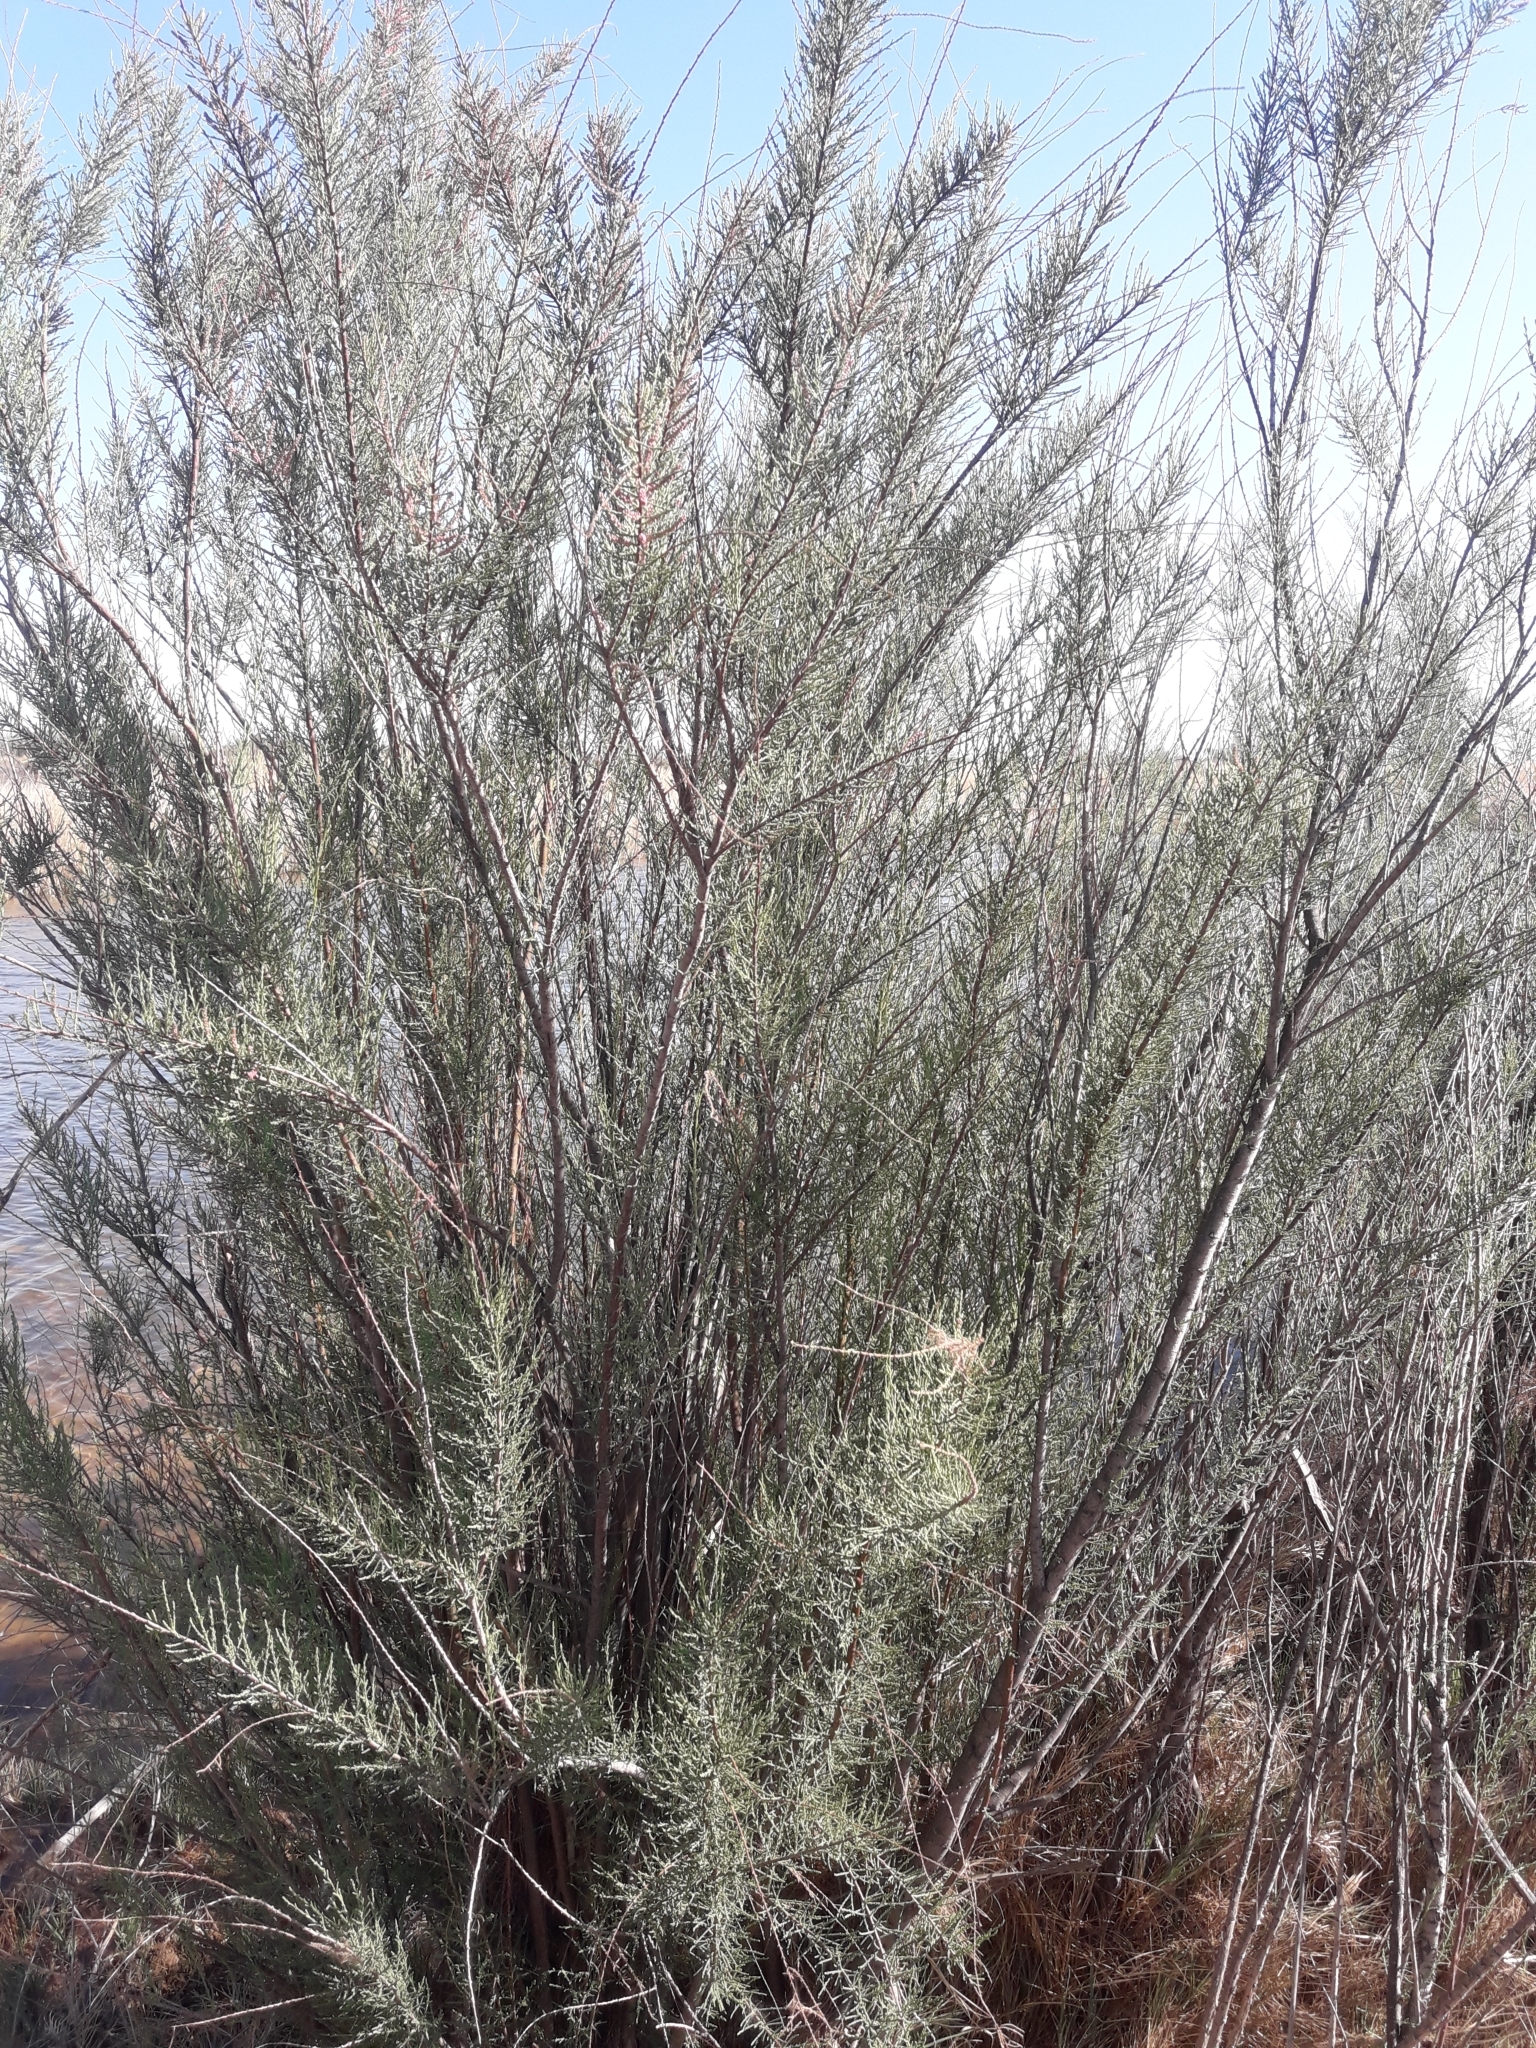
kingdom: Plantae
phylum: Tracheophyta
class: Magnoliopsida
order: Caryophyllales
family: Tamaricaceae
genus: Tamarix
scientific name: Tamarix gallica
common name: Tamarisk
